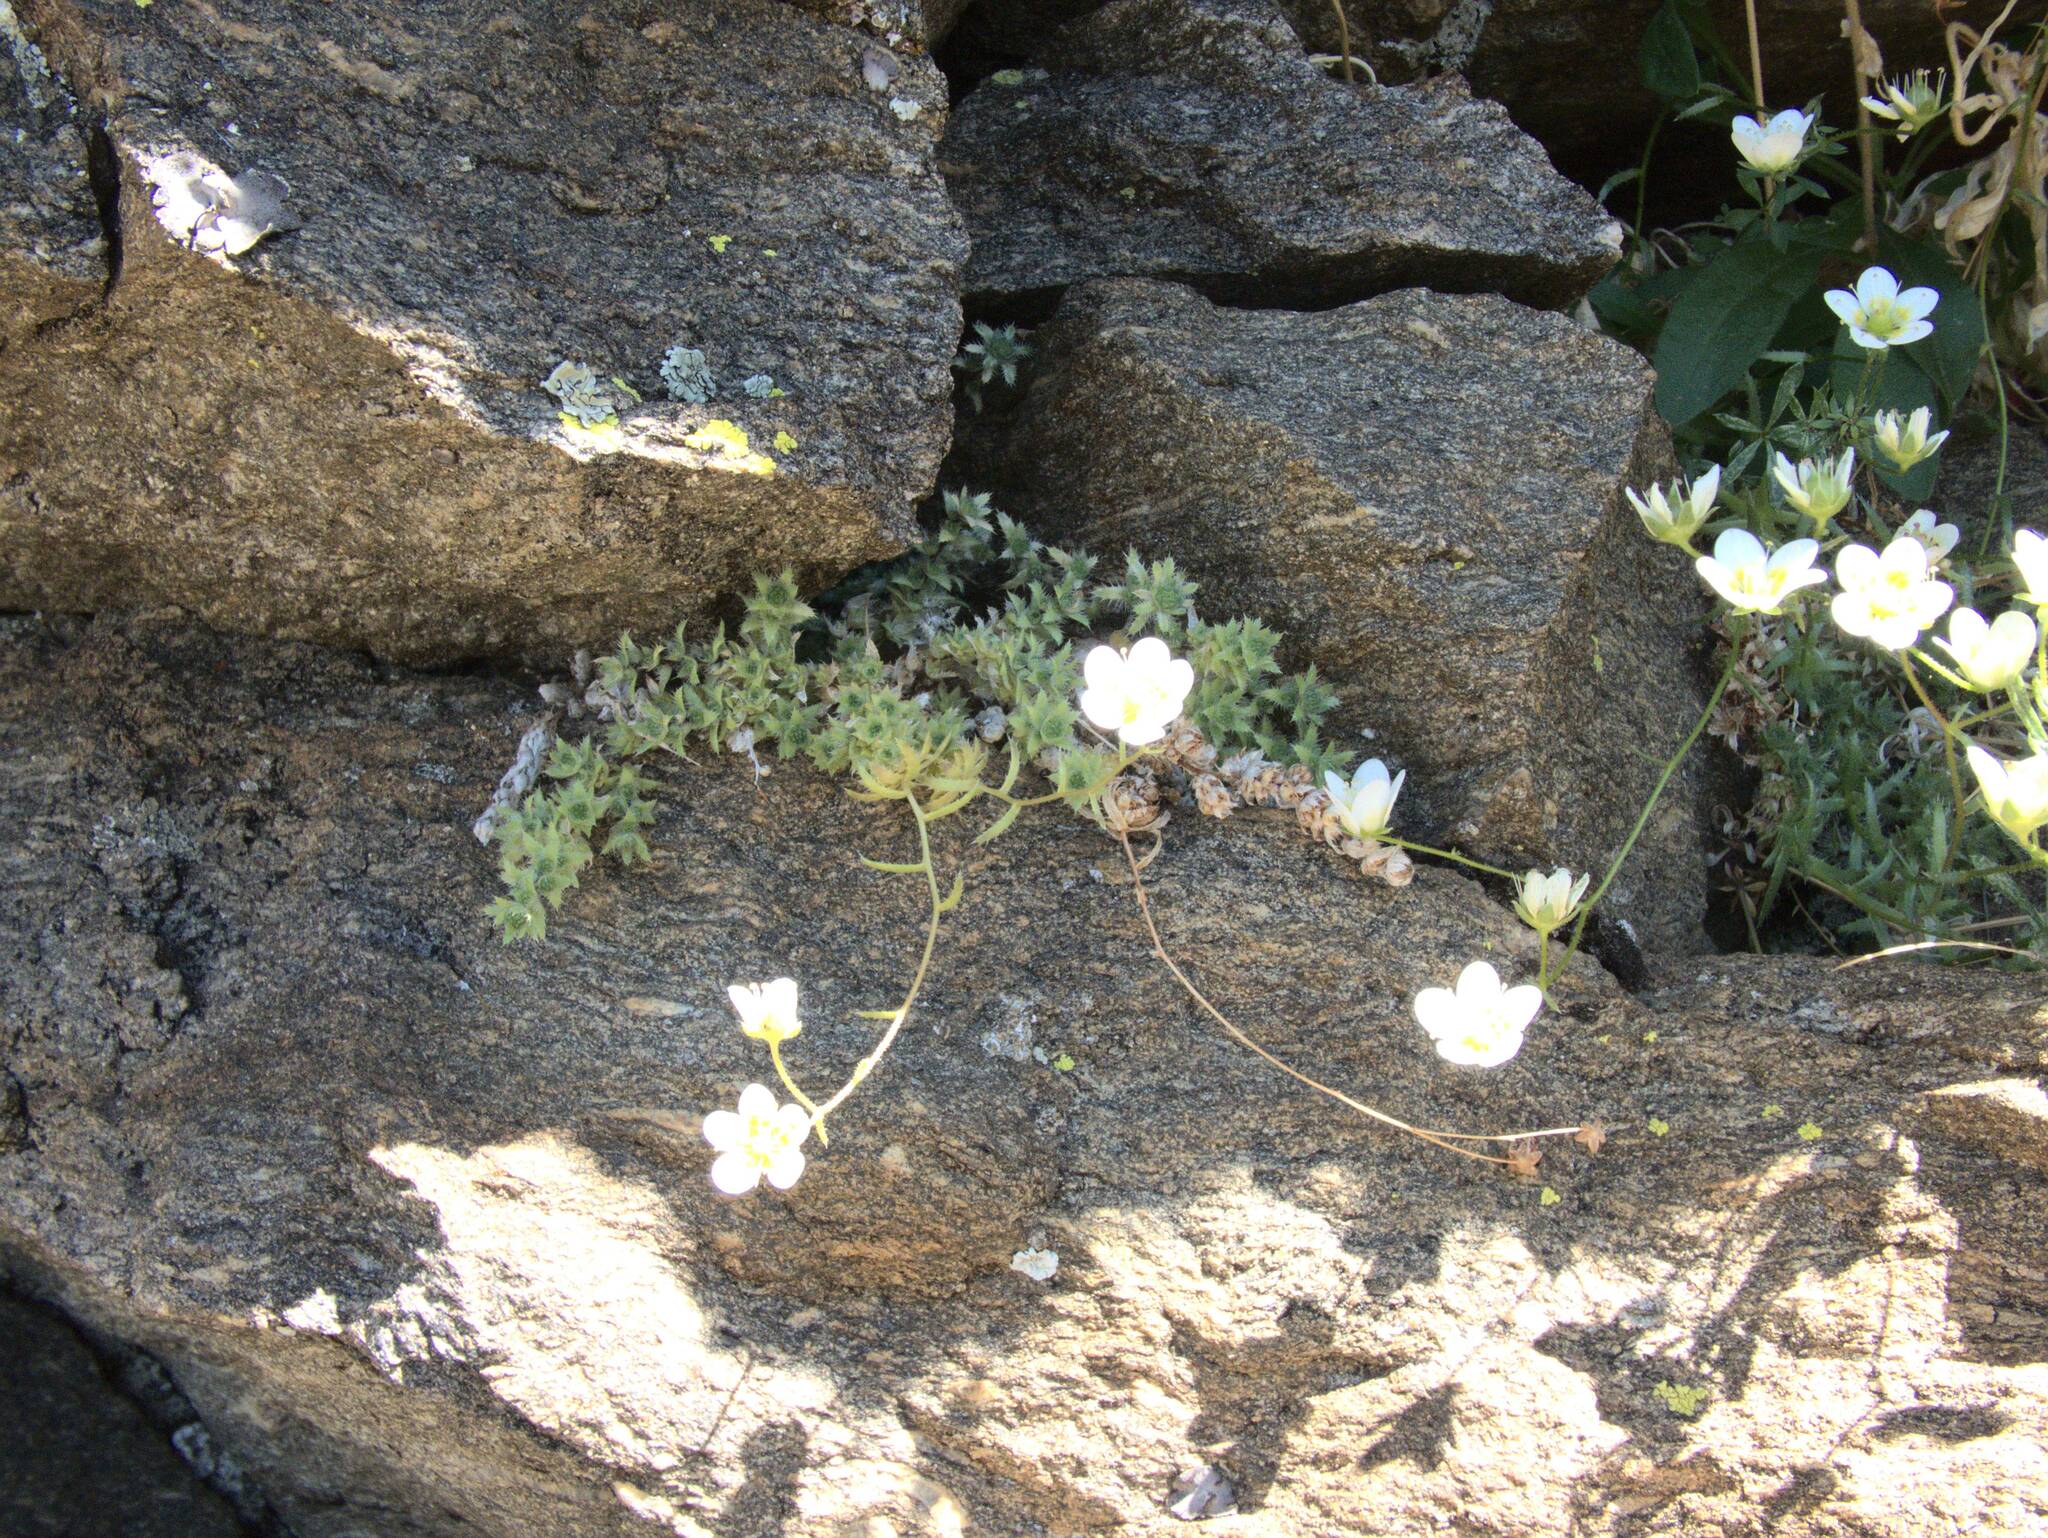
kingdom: Plantae
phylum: Tracheophyta
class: Magnoliopsida
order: Saxifragales
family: Saxifragaceae
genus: Saxifraga
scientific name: Saxifraga aspera
